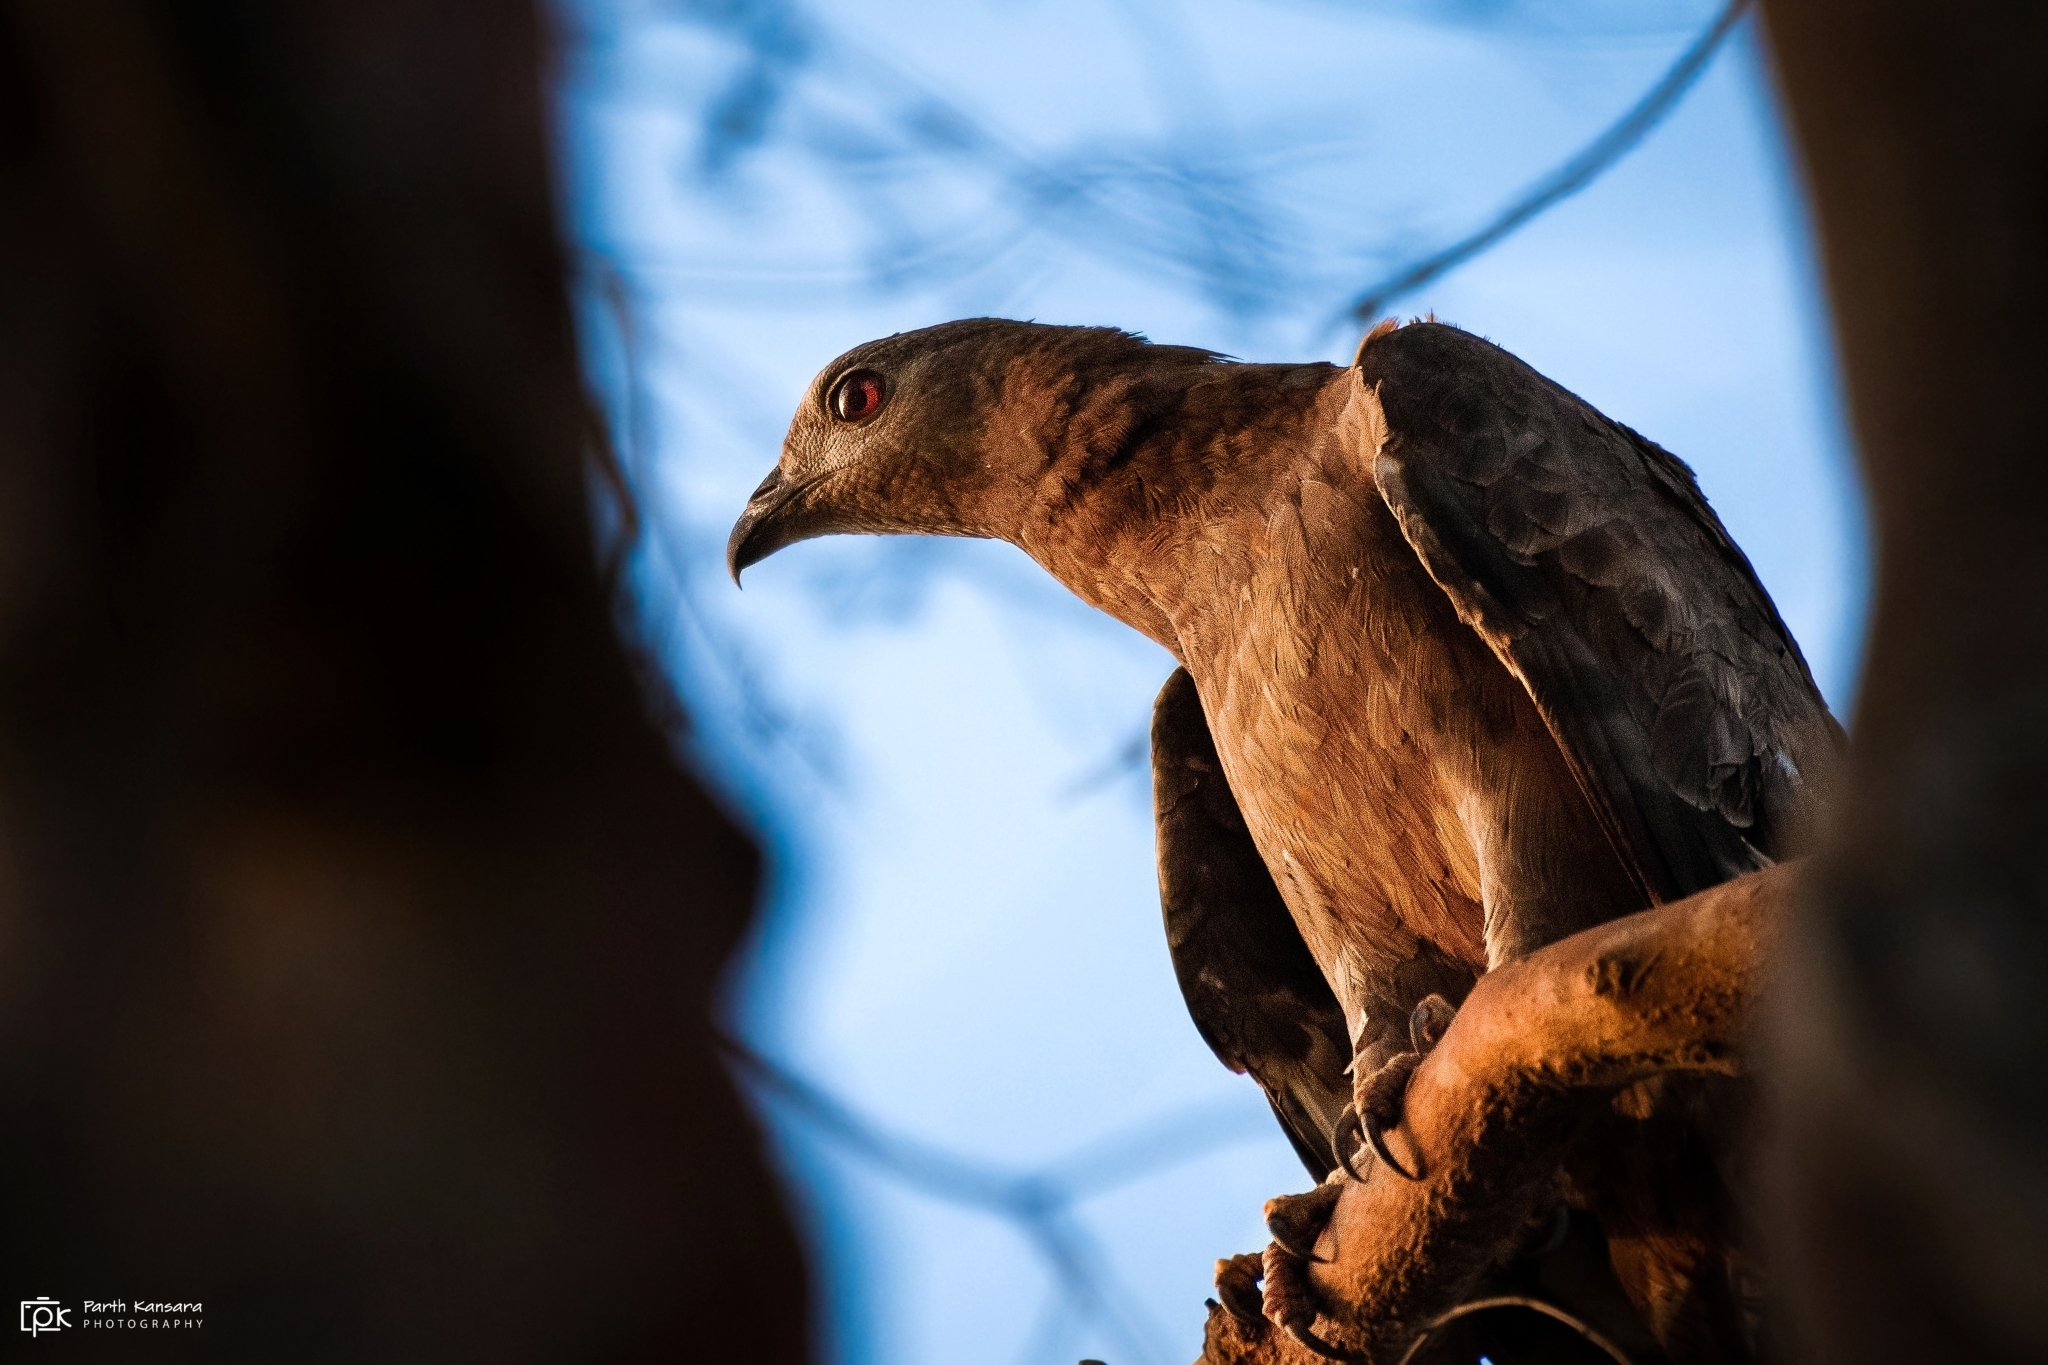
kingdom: Animalia
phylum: Chordata
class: Aves
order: Accipitriformes
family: Accipitridae
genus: Pernis
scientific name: Pernis ptilorhynchus
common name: Crested honey buzzard
